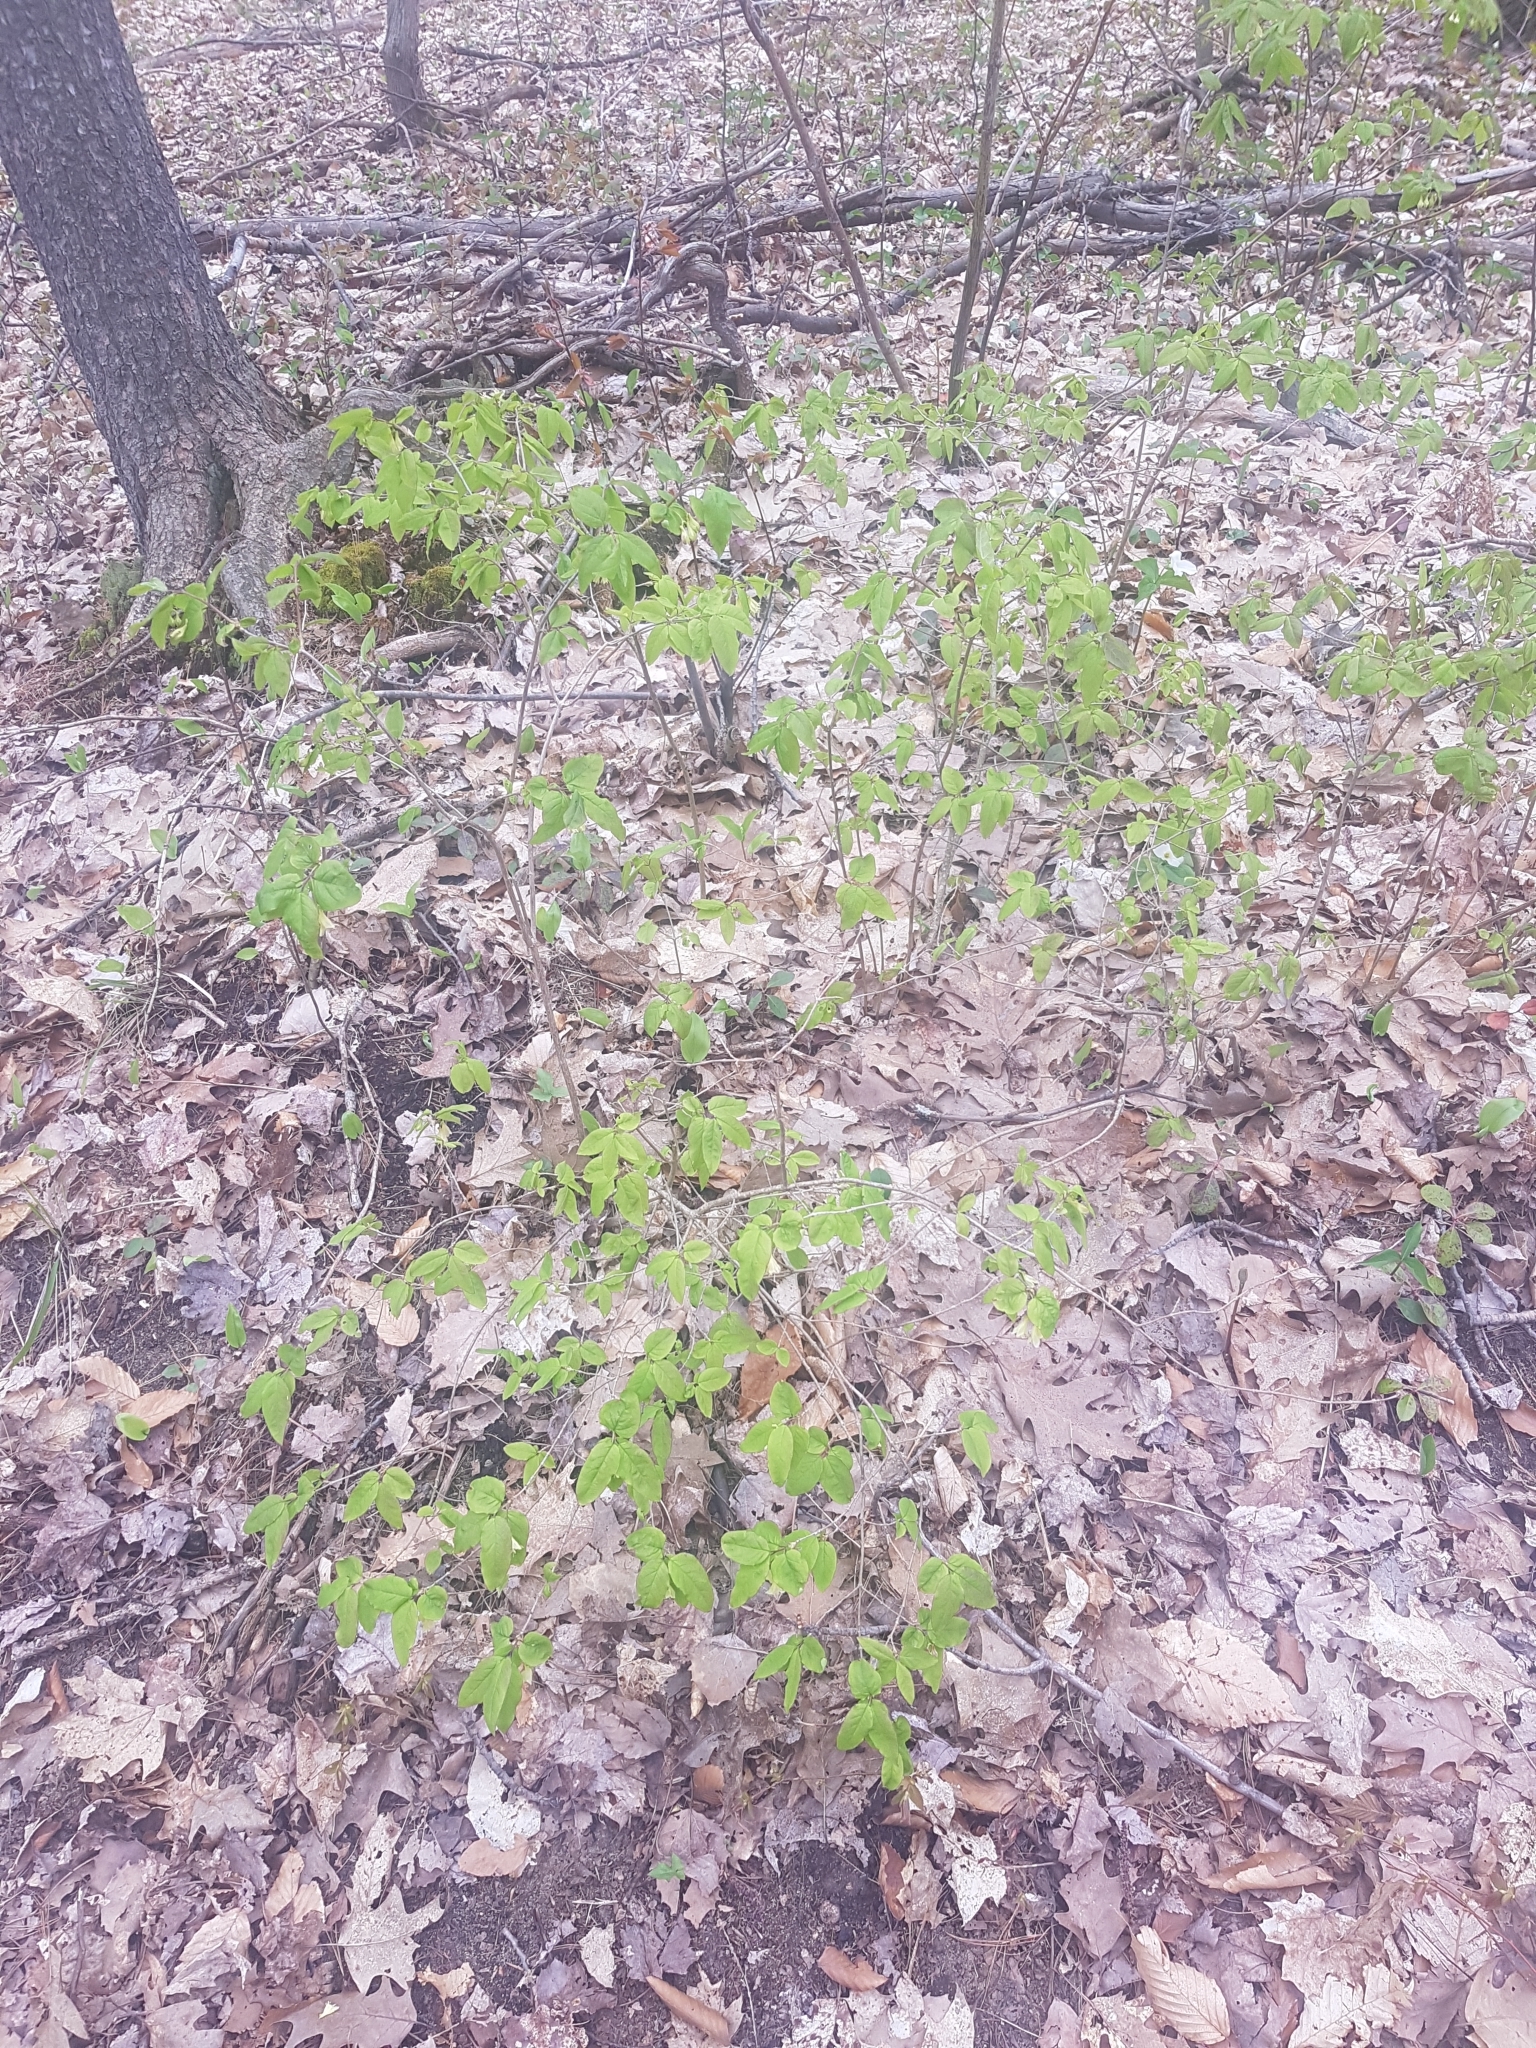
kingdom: Plantae
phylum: Tracheophyta
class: Magnoliopsida
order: Dipsacales
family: Caprifoliaceae
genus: Lonicera
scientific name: Lonicera canadensis
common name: American fly-honeysuckle
